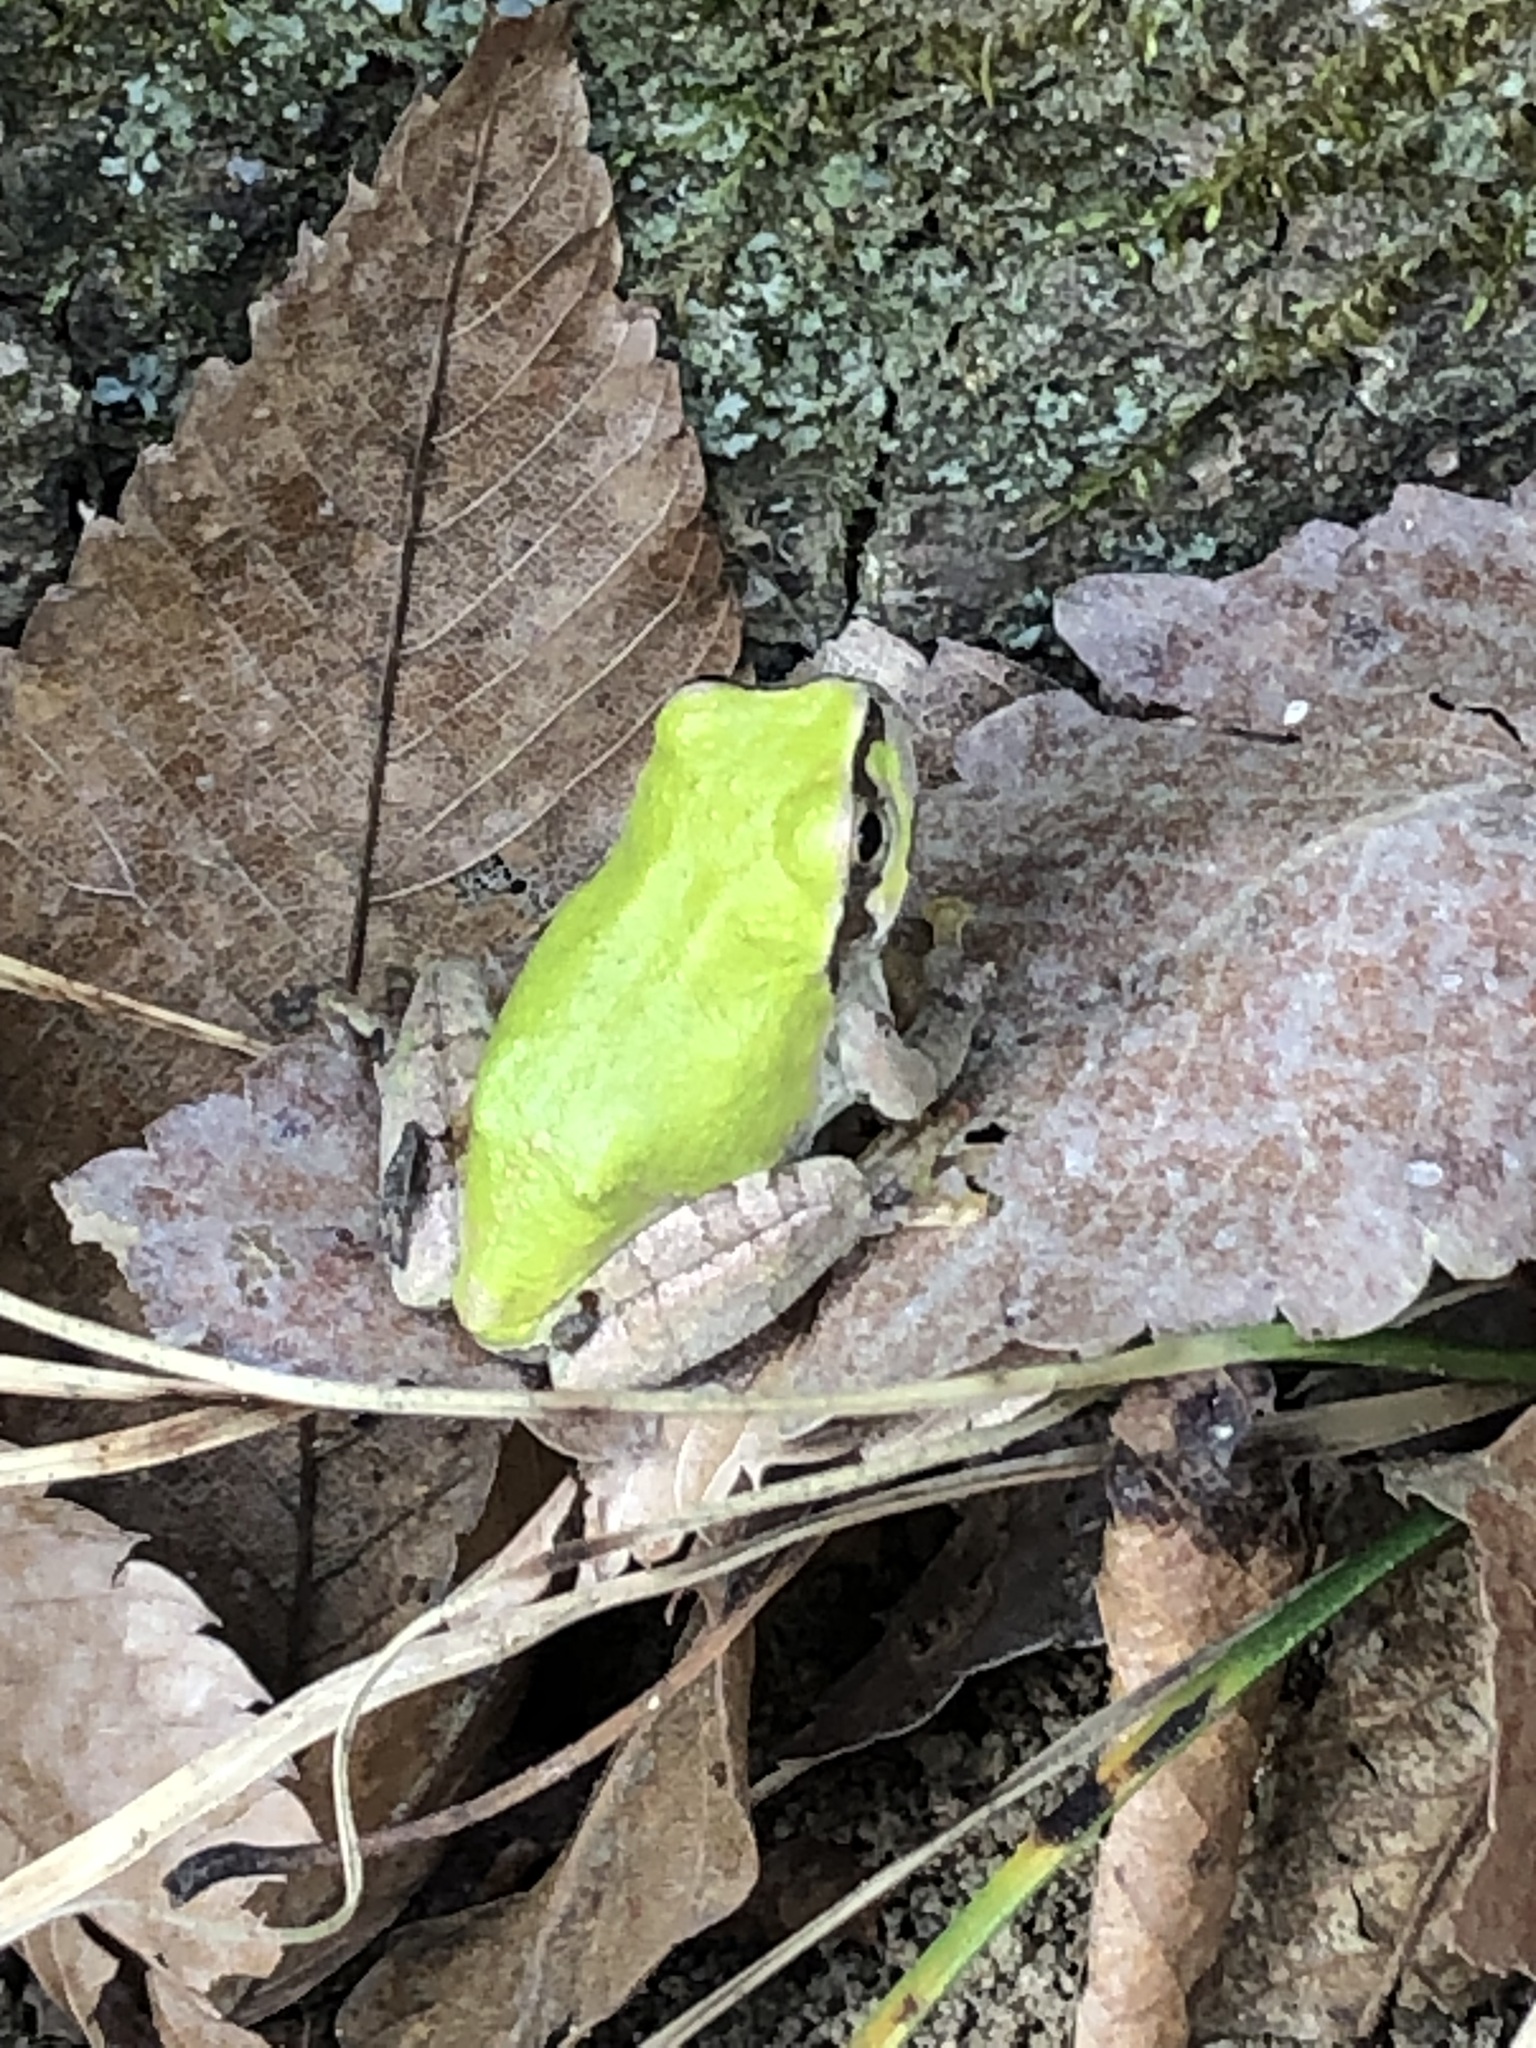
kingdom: Animalia
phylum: Chordata
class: Amphibia
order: Anura
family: Hylidae
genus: Dryophytes
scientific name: Dryophytes japonicus
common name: Japanese treefrog
